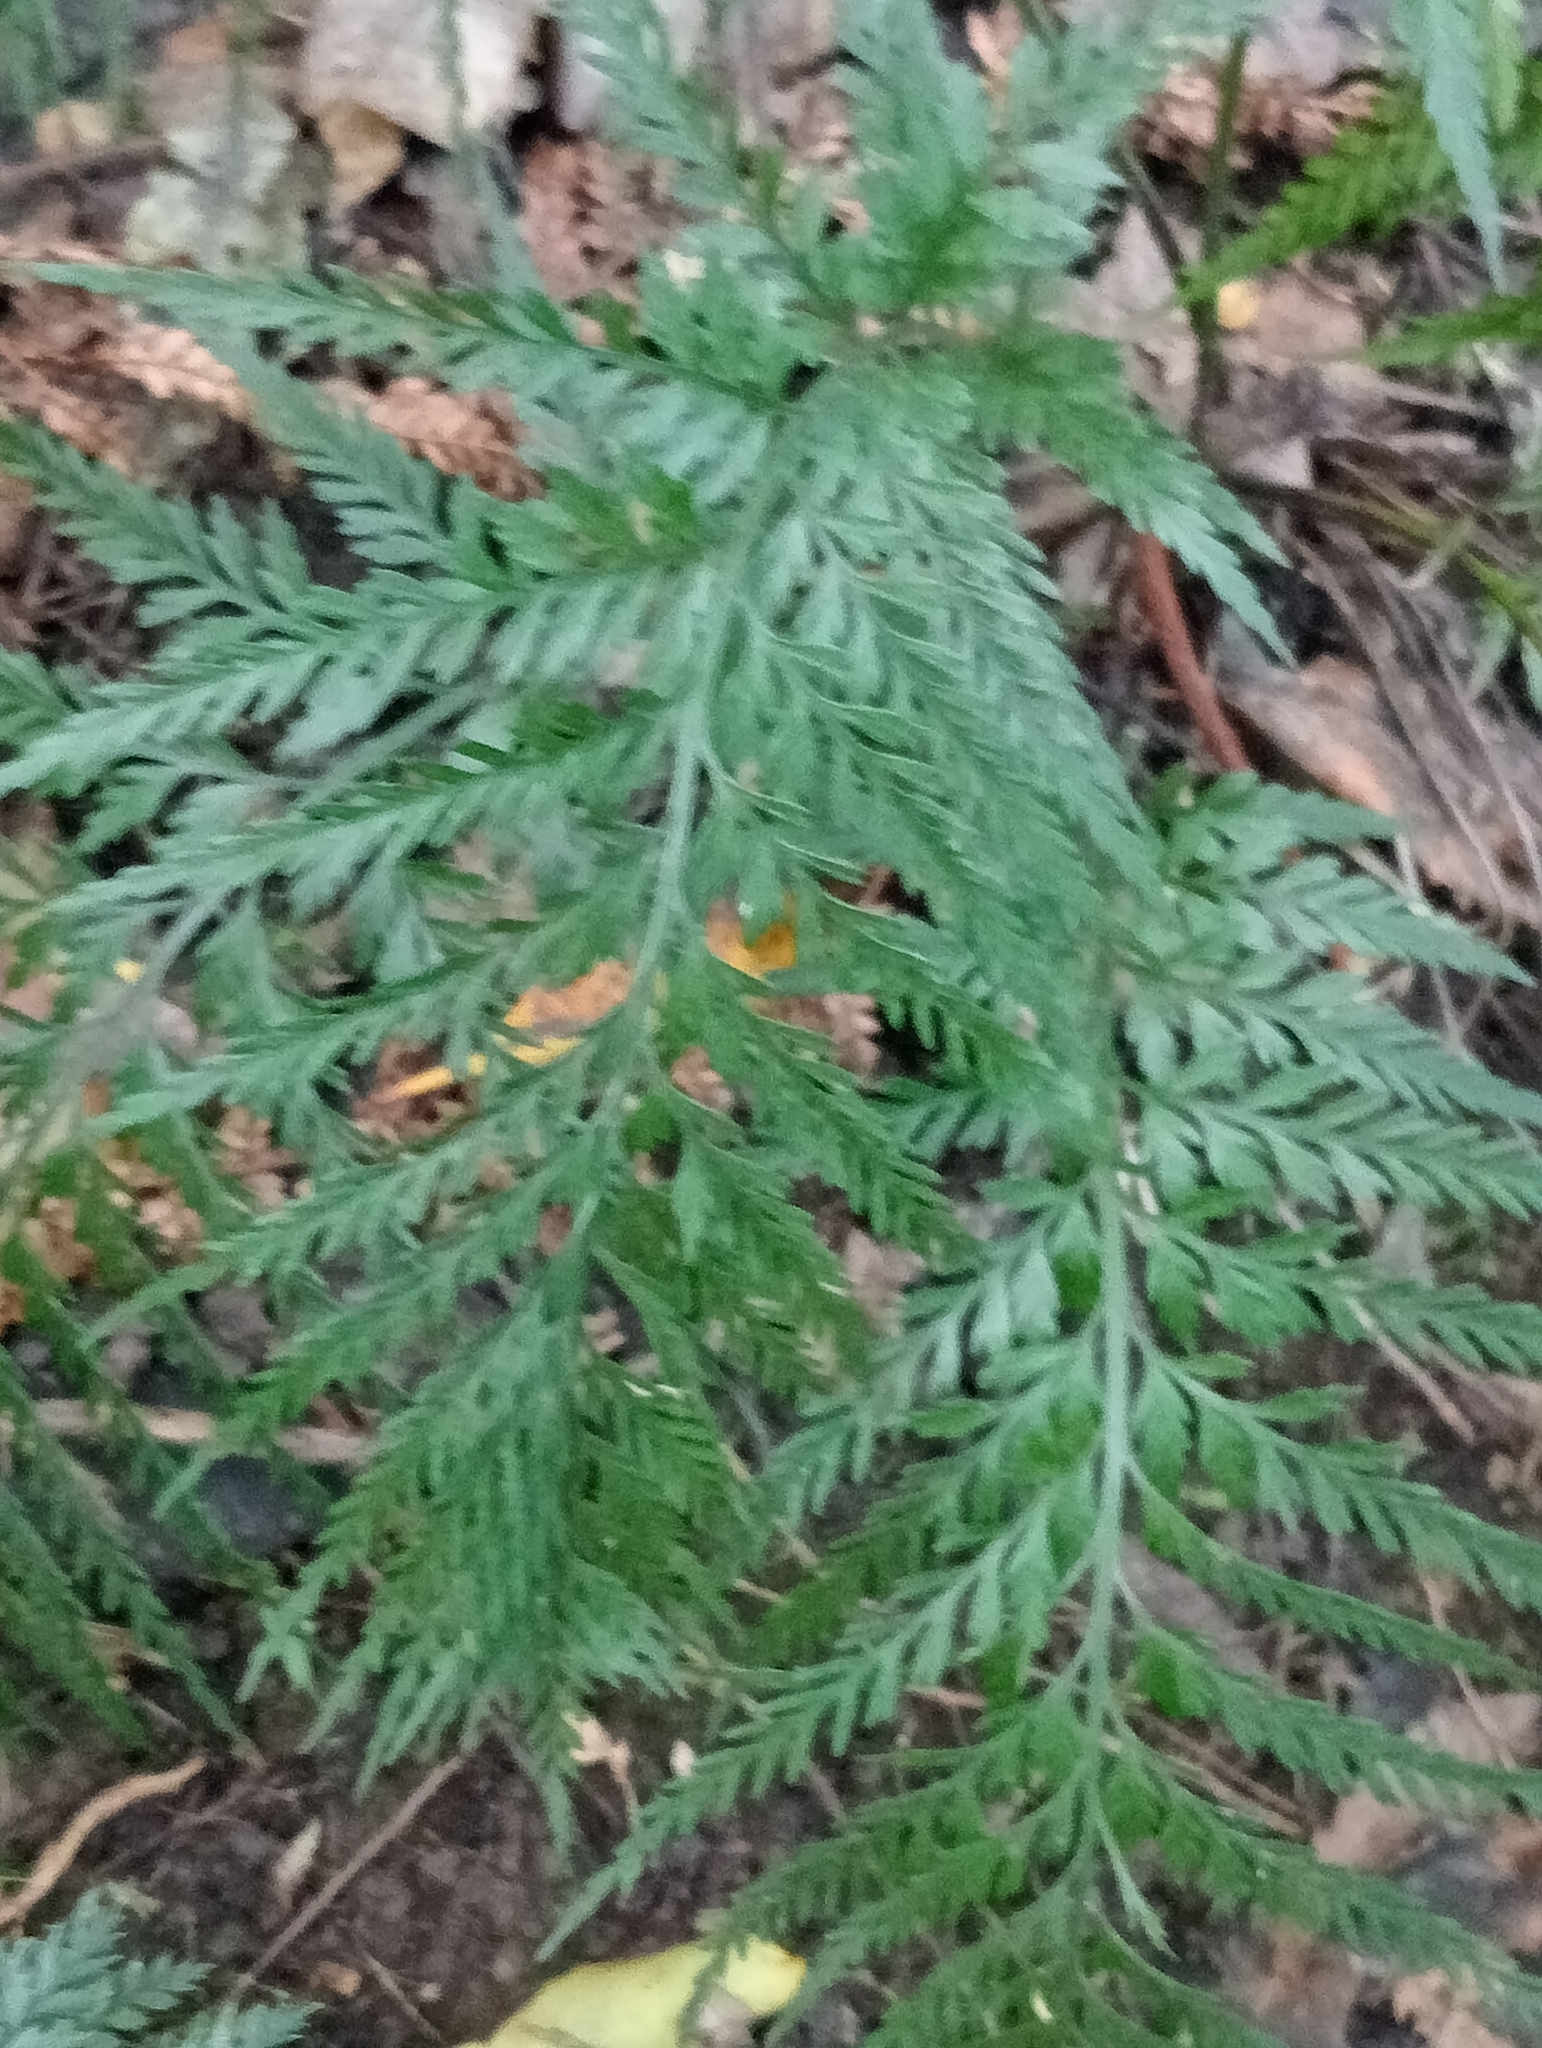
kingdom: Plantae
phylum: Tracheophyta
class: Polypodiopsida
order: Polypodiales
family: Aspleniaceae
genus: Asplenium
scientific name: Asplenium appendiculatum
